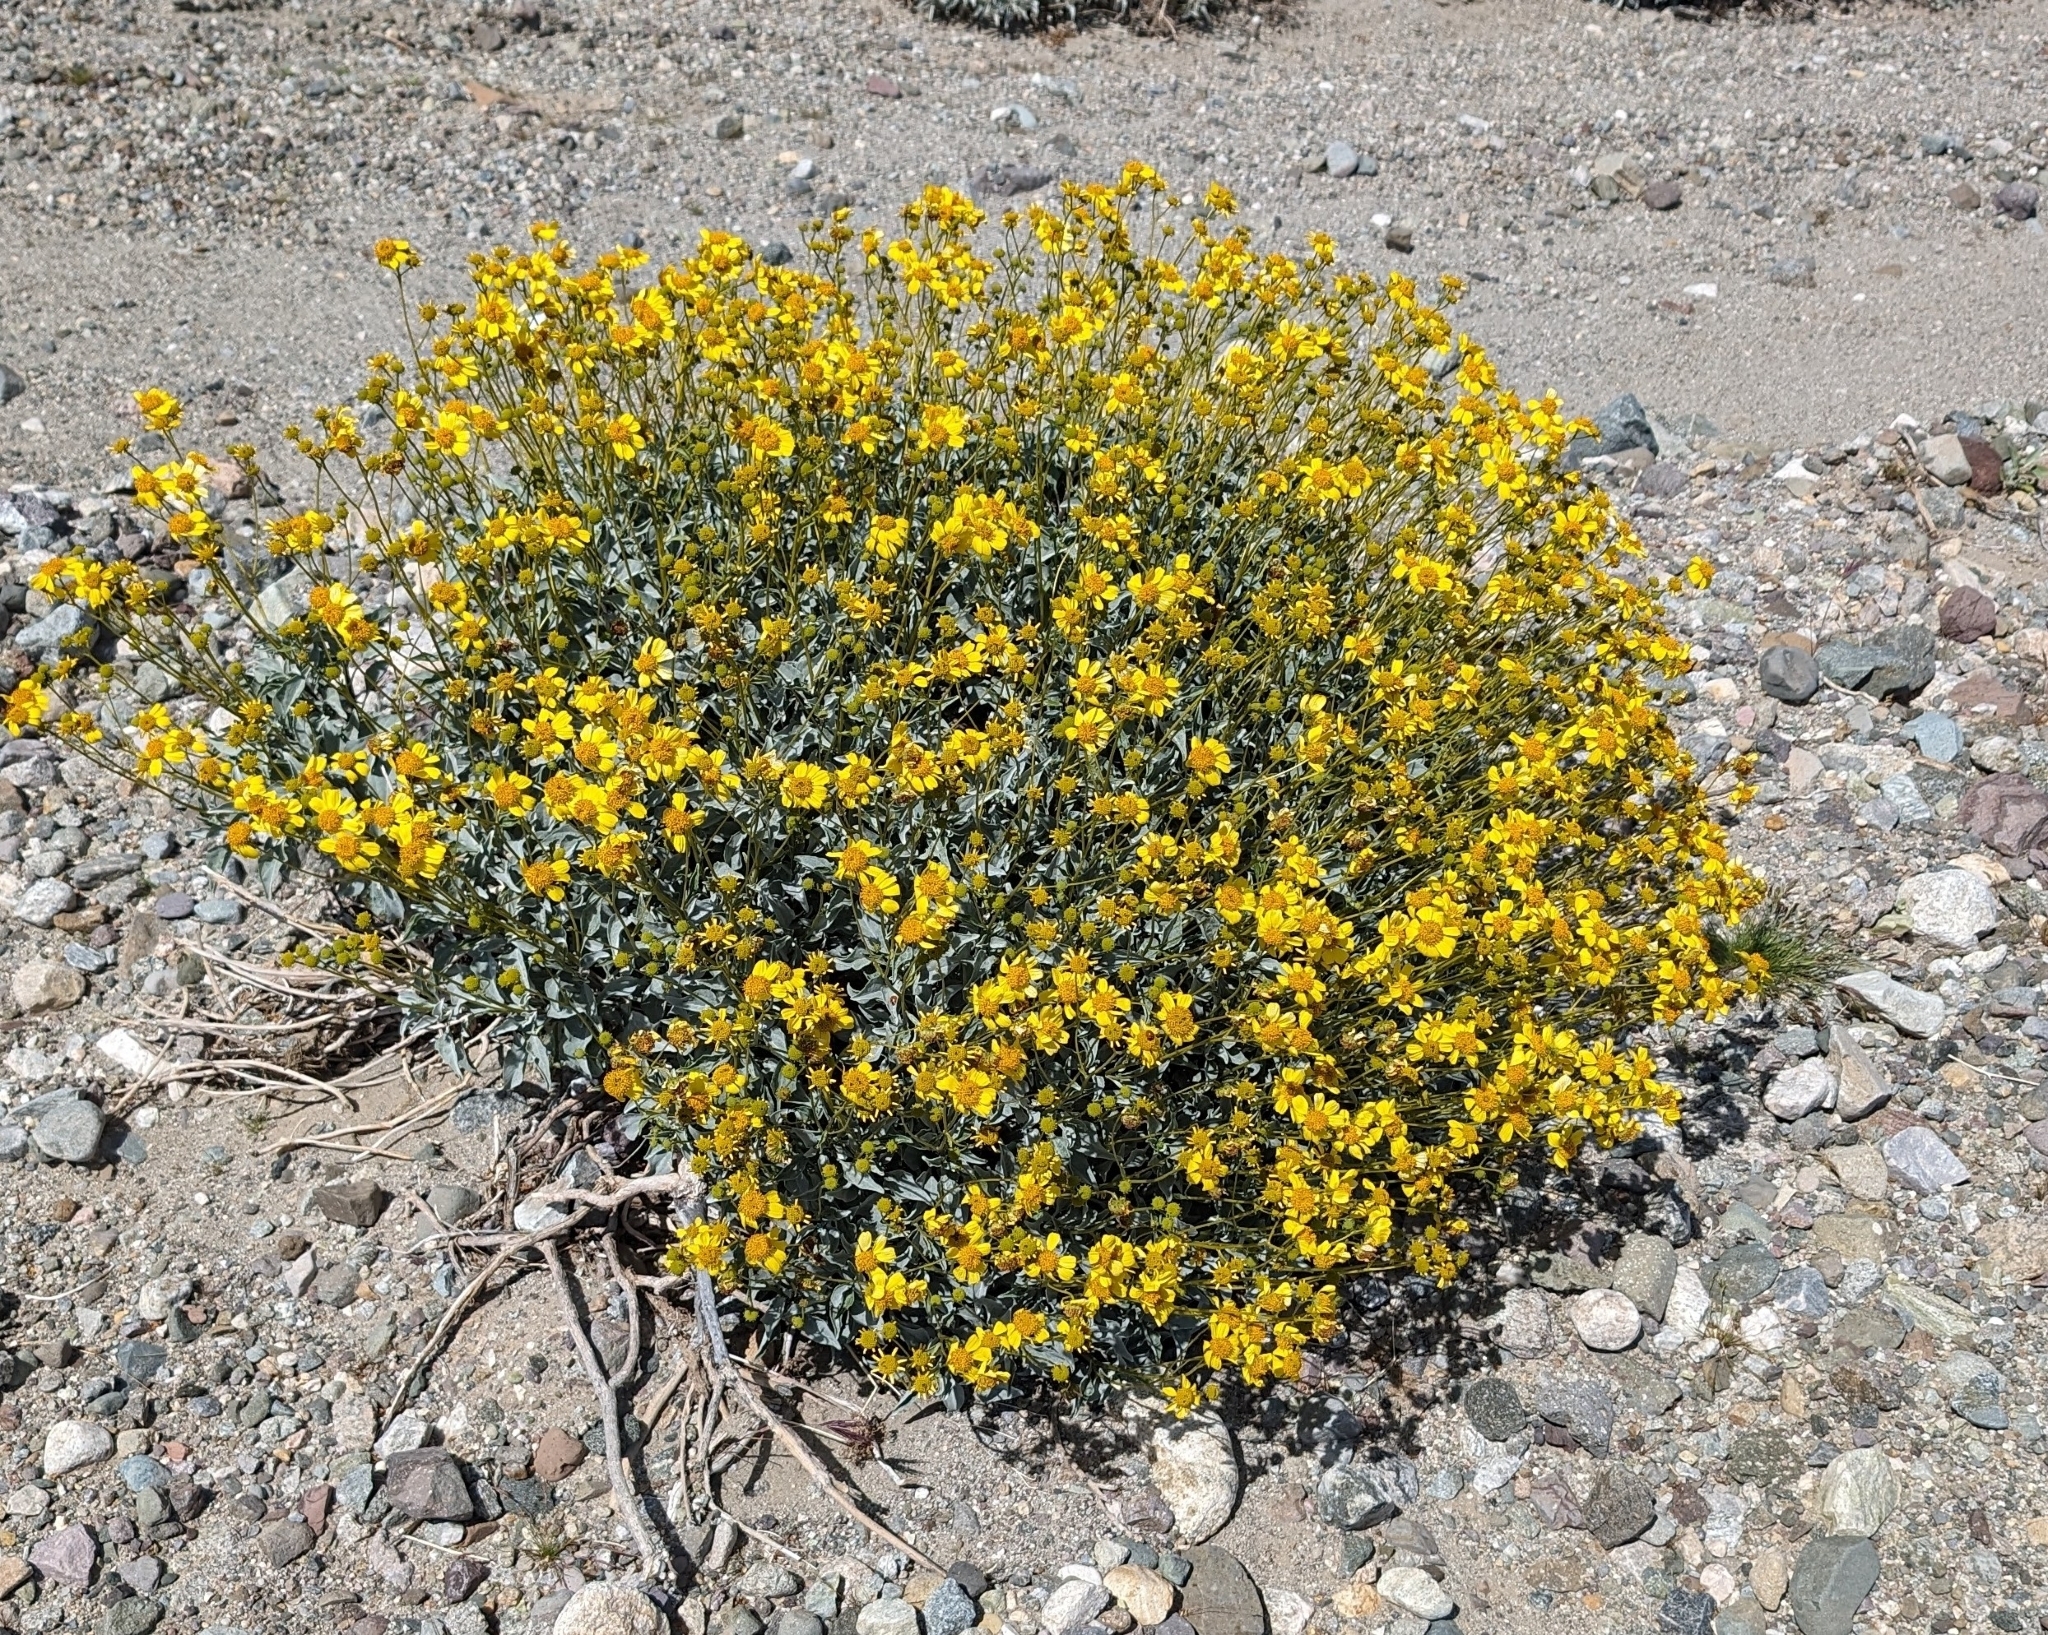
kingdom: Plantae
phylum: Tracheophyta
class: Magnoliopsida
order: Asterales
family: Asteraceae
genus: Encelia
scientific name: Encelia farinosa
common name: Brittlebush
